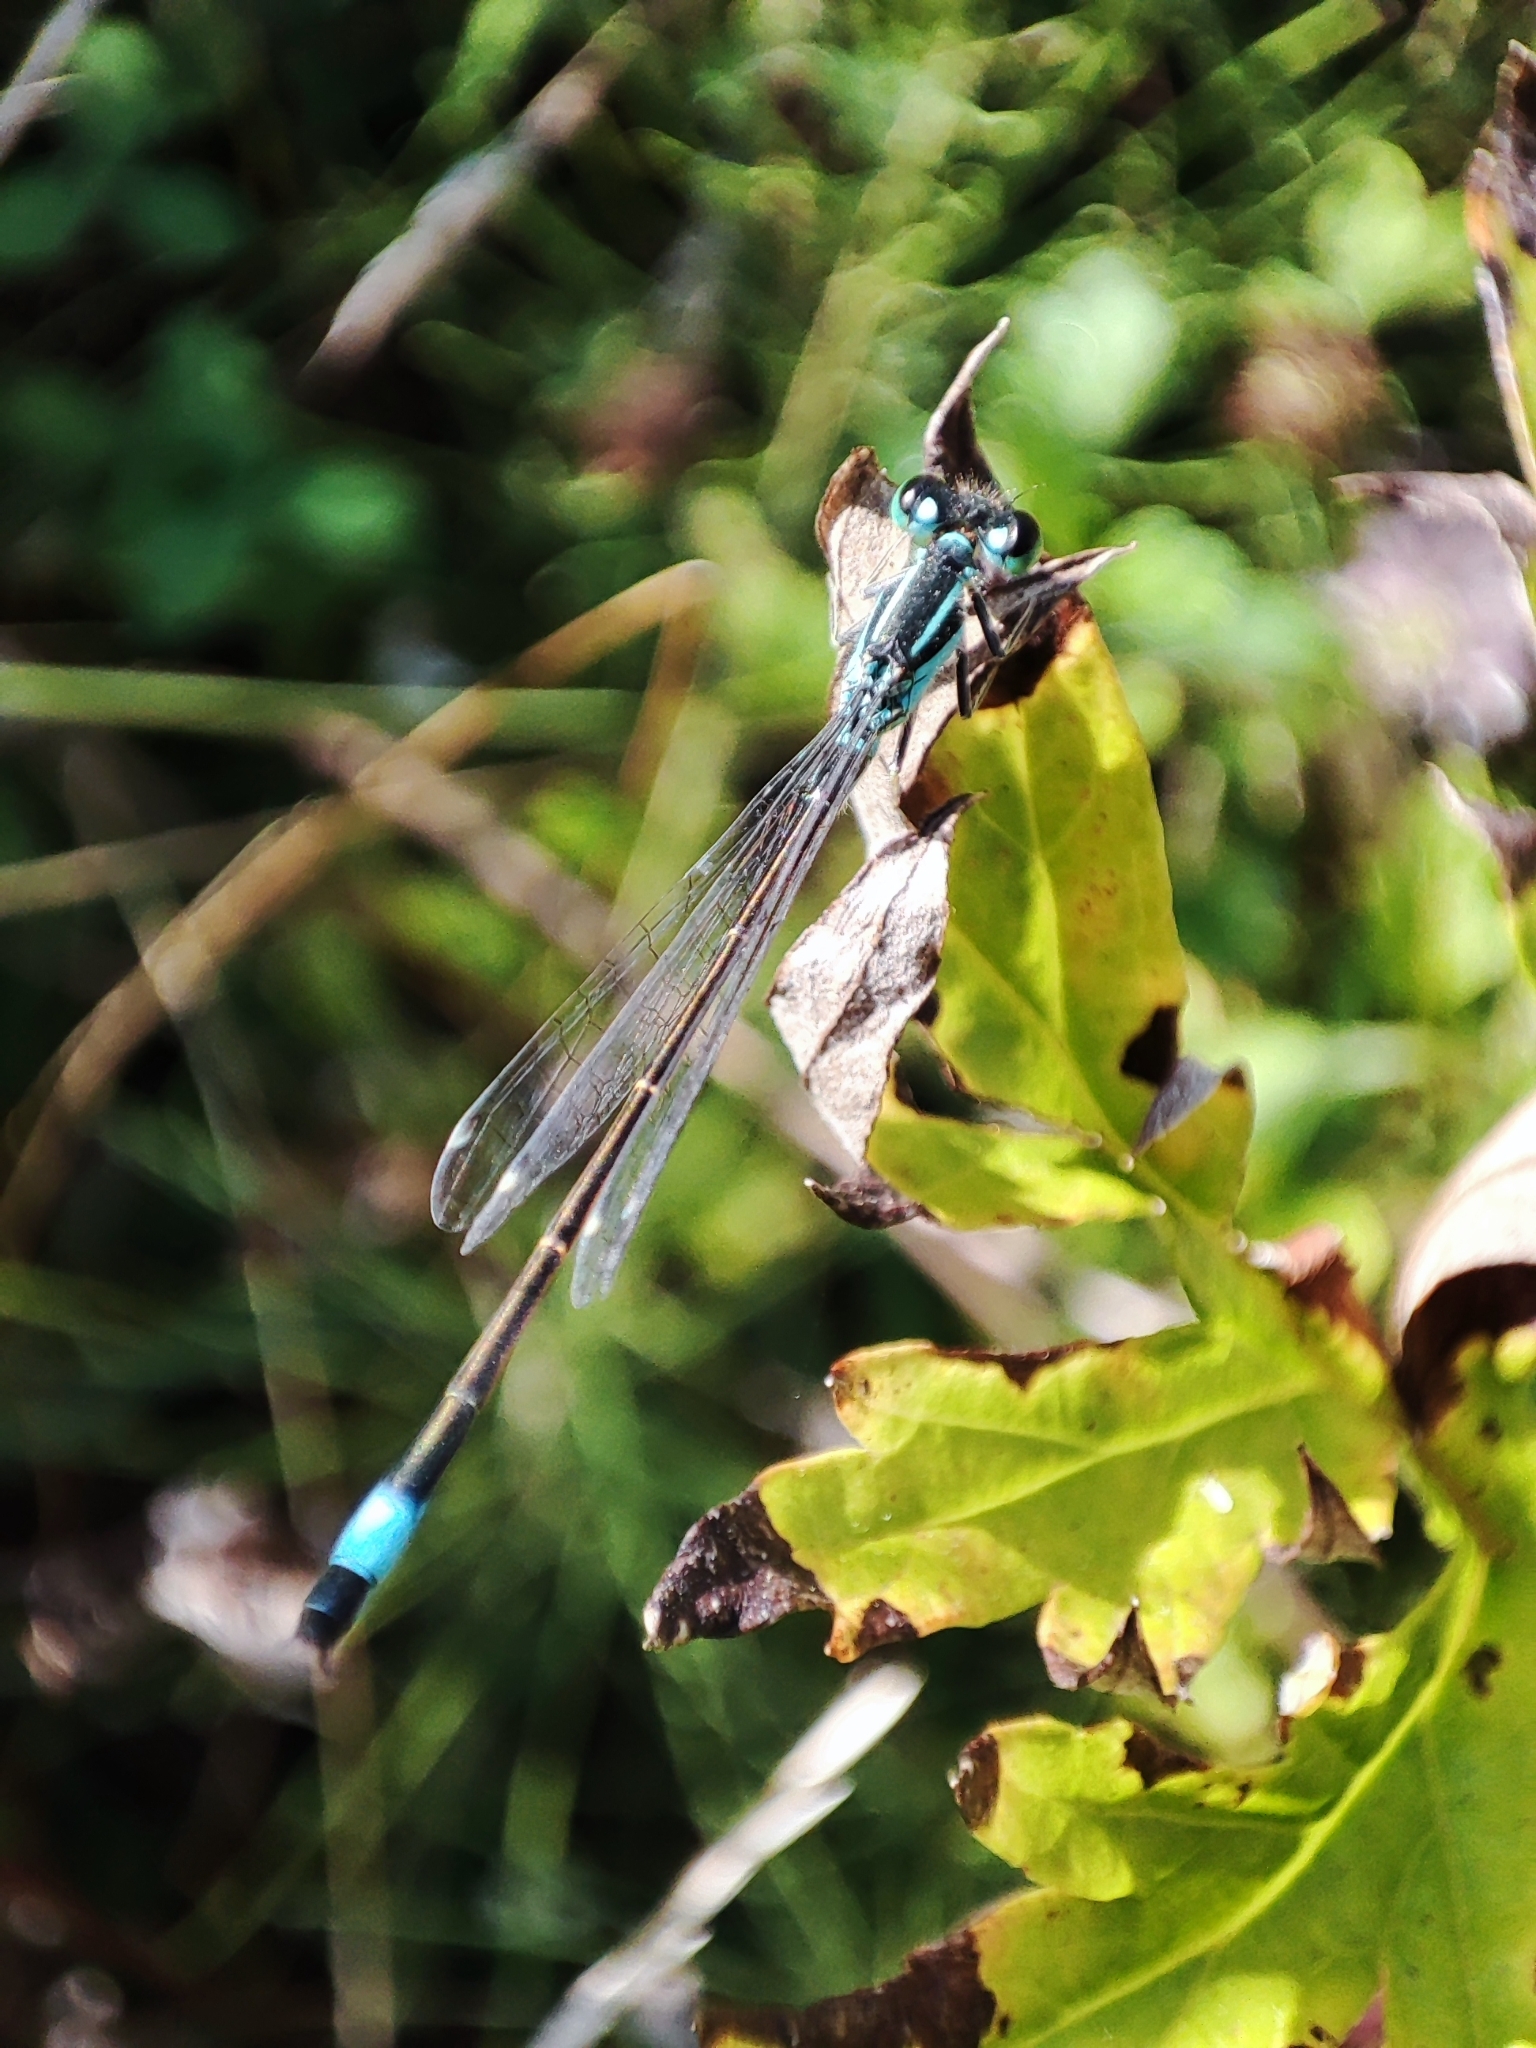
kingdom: Animalia
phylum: Arthropoda
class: Insecta
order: Odonata
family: Coenagrionidae
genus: Ischnura
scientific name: Ischnura elegans
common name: Blue-tailed damselfly
